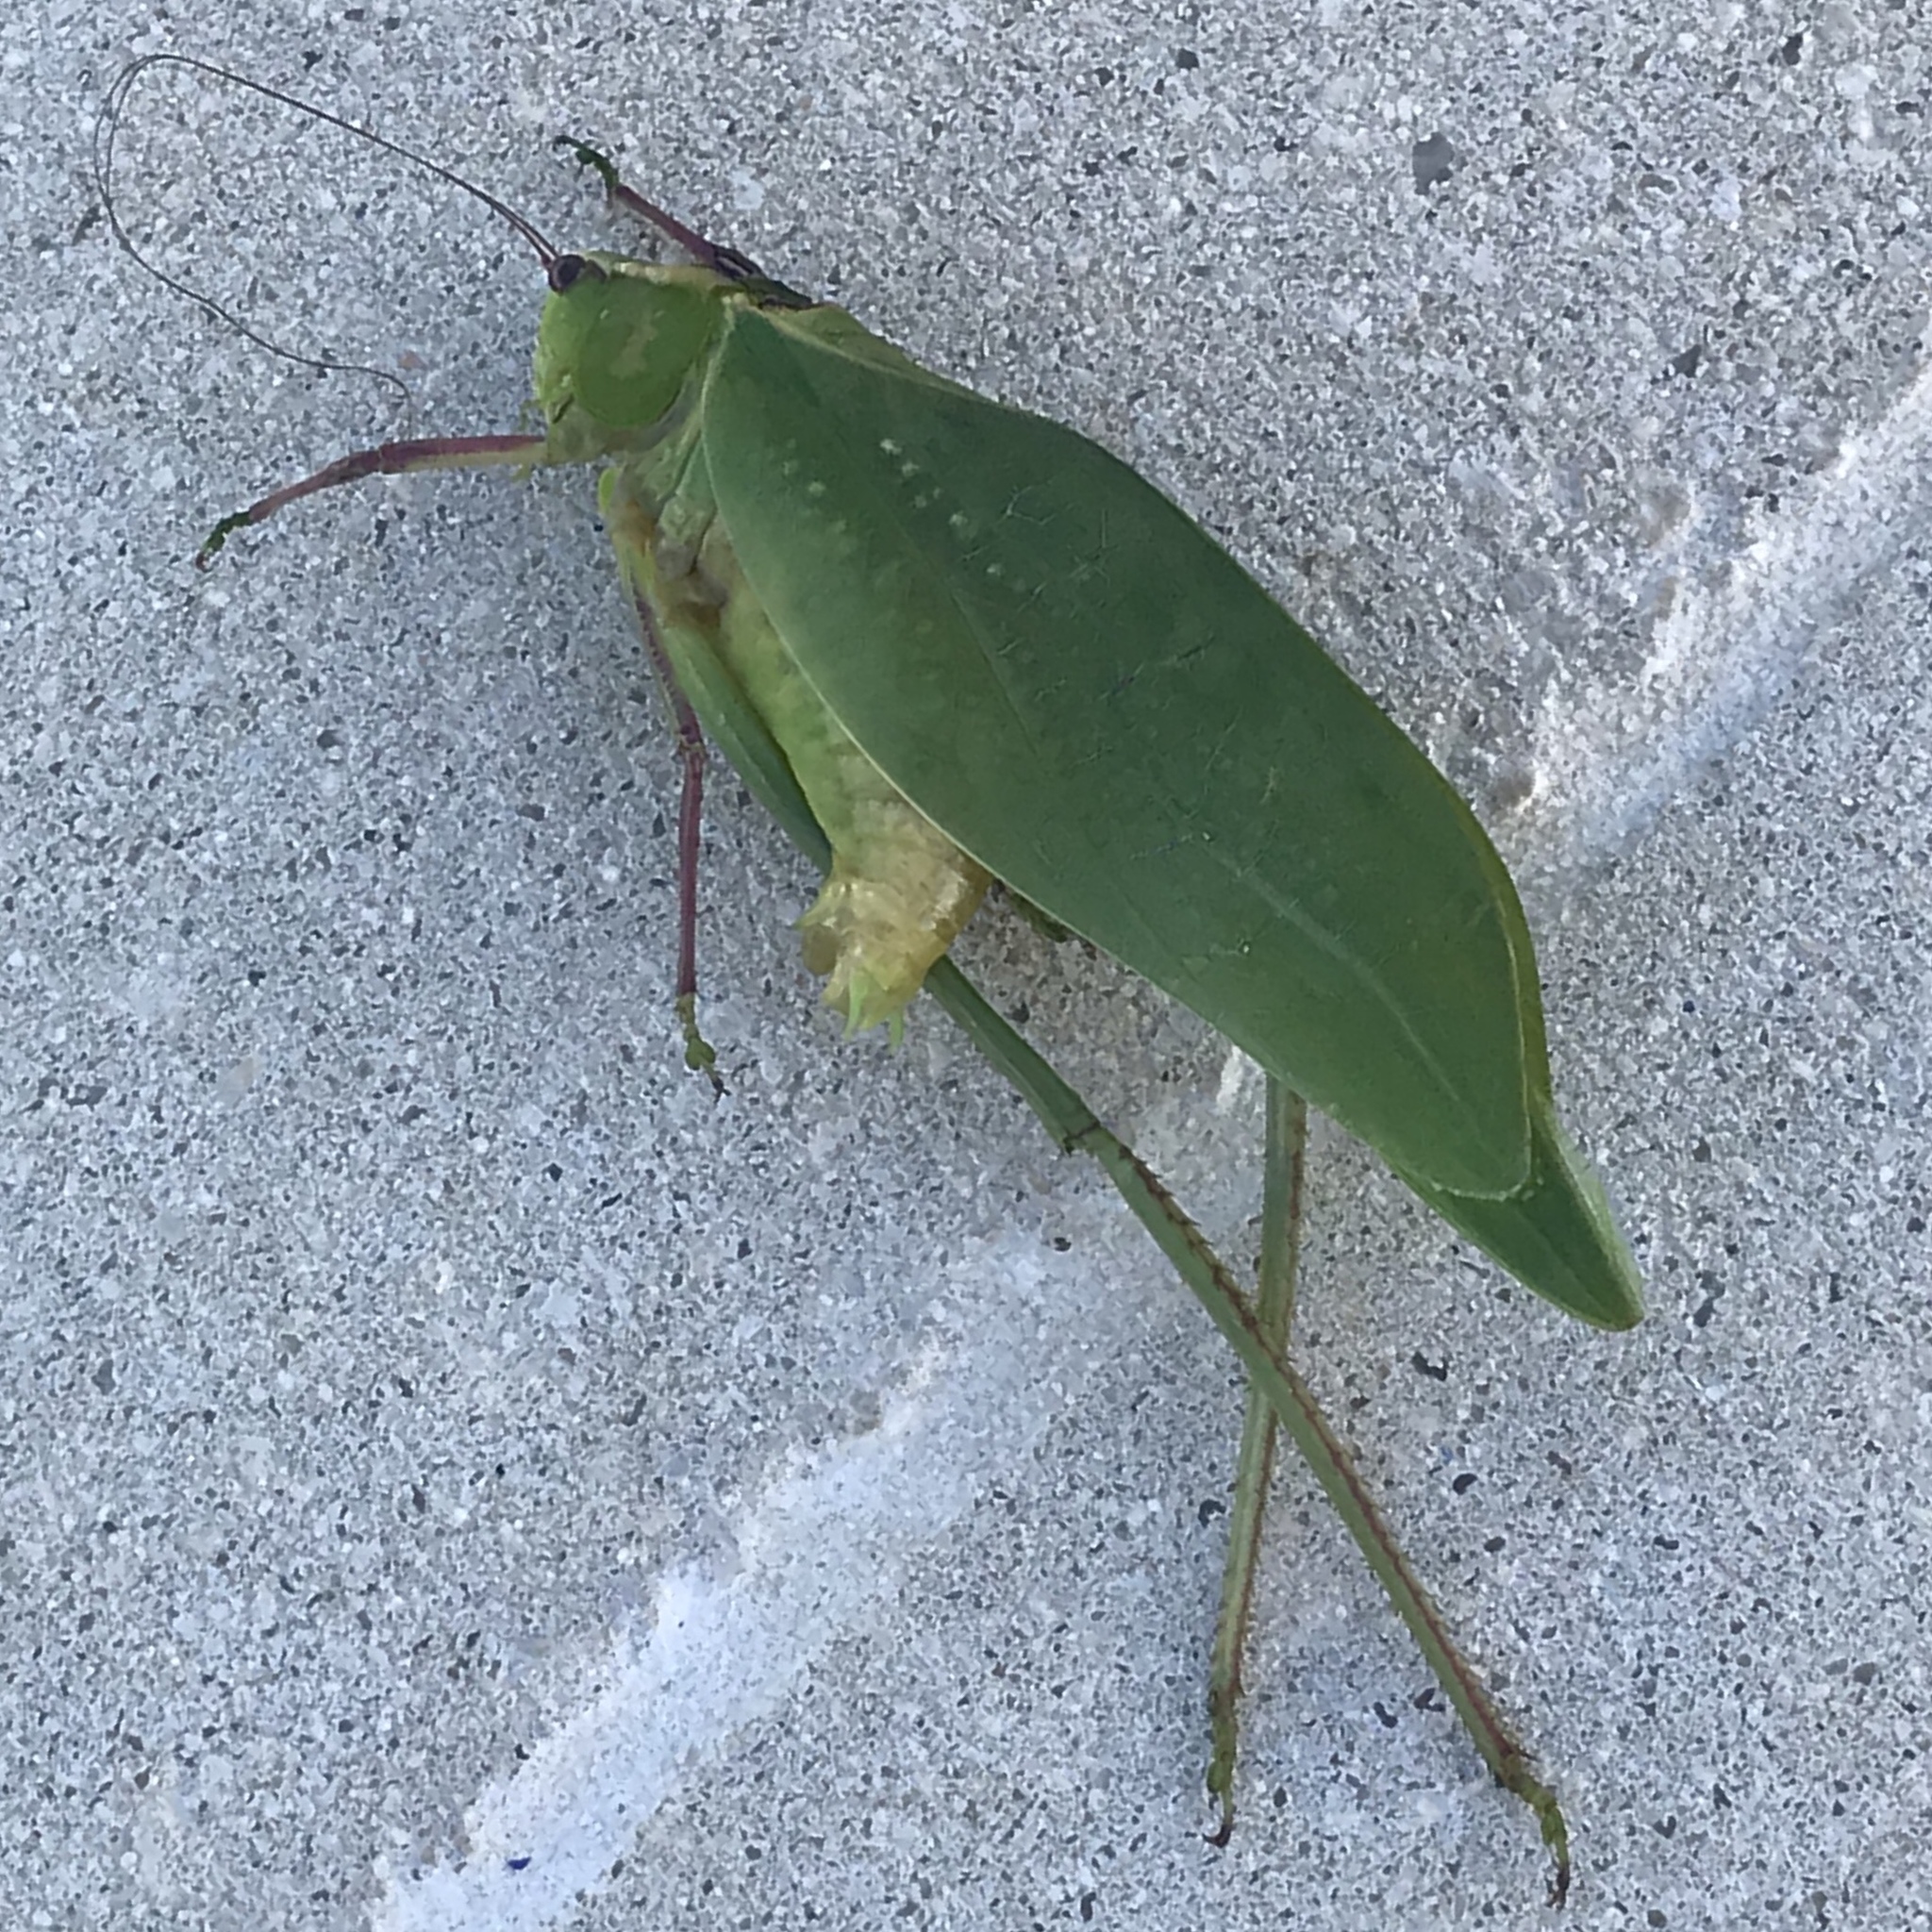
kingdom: Animalia
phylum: Arthropoda
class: Insecta
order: Orthoptera
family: Tettigoniidae
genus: Stilpnochlora
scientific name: Stilpnochlora couloniana
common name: Giant katydid
